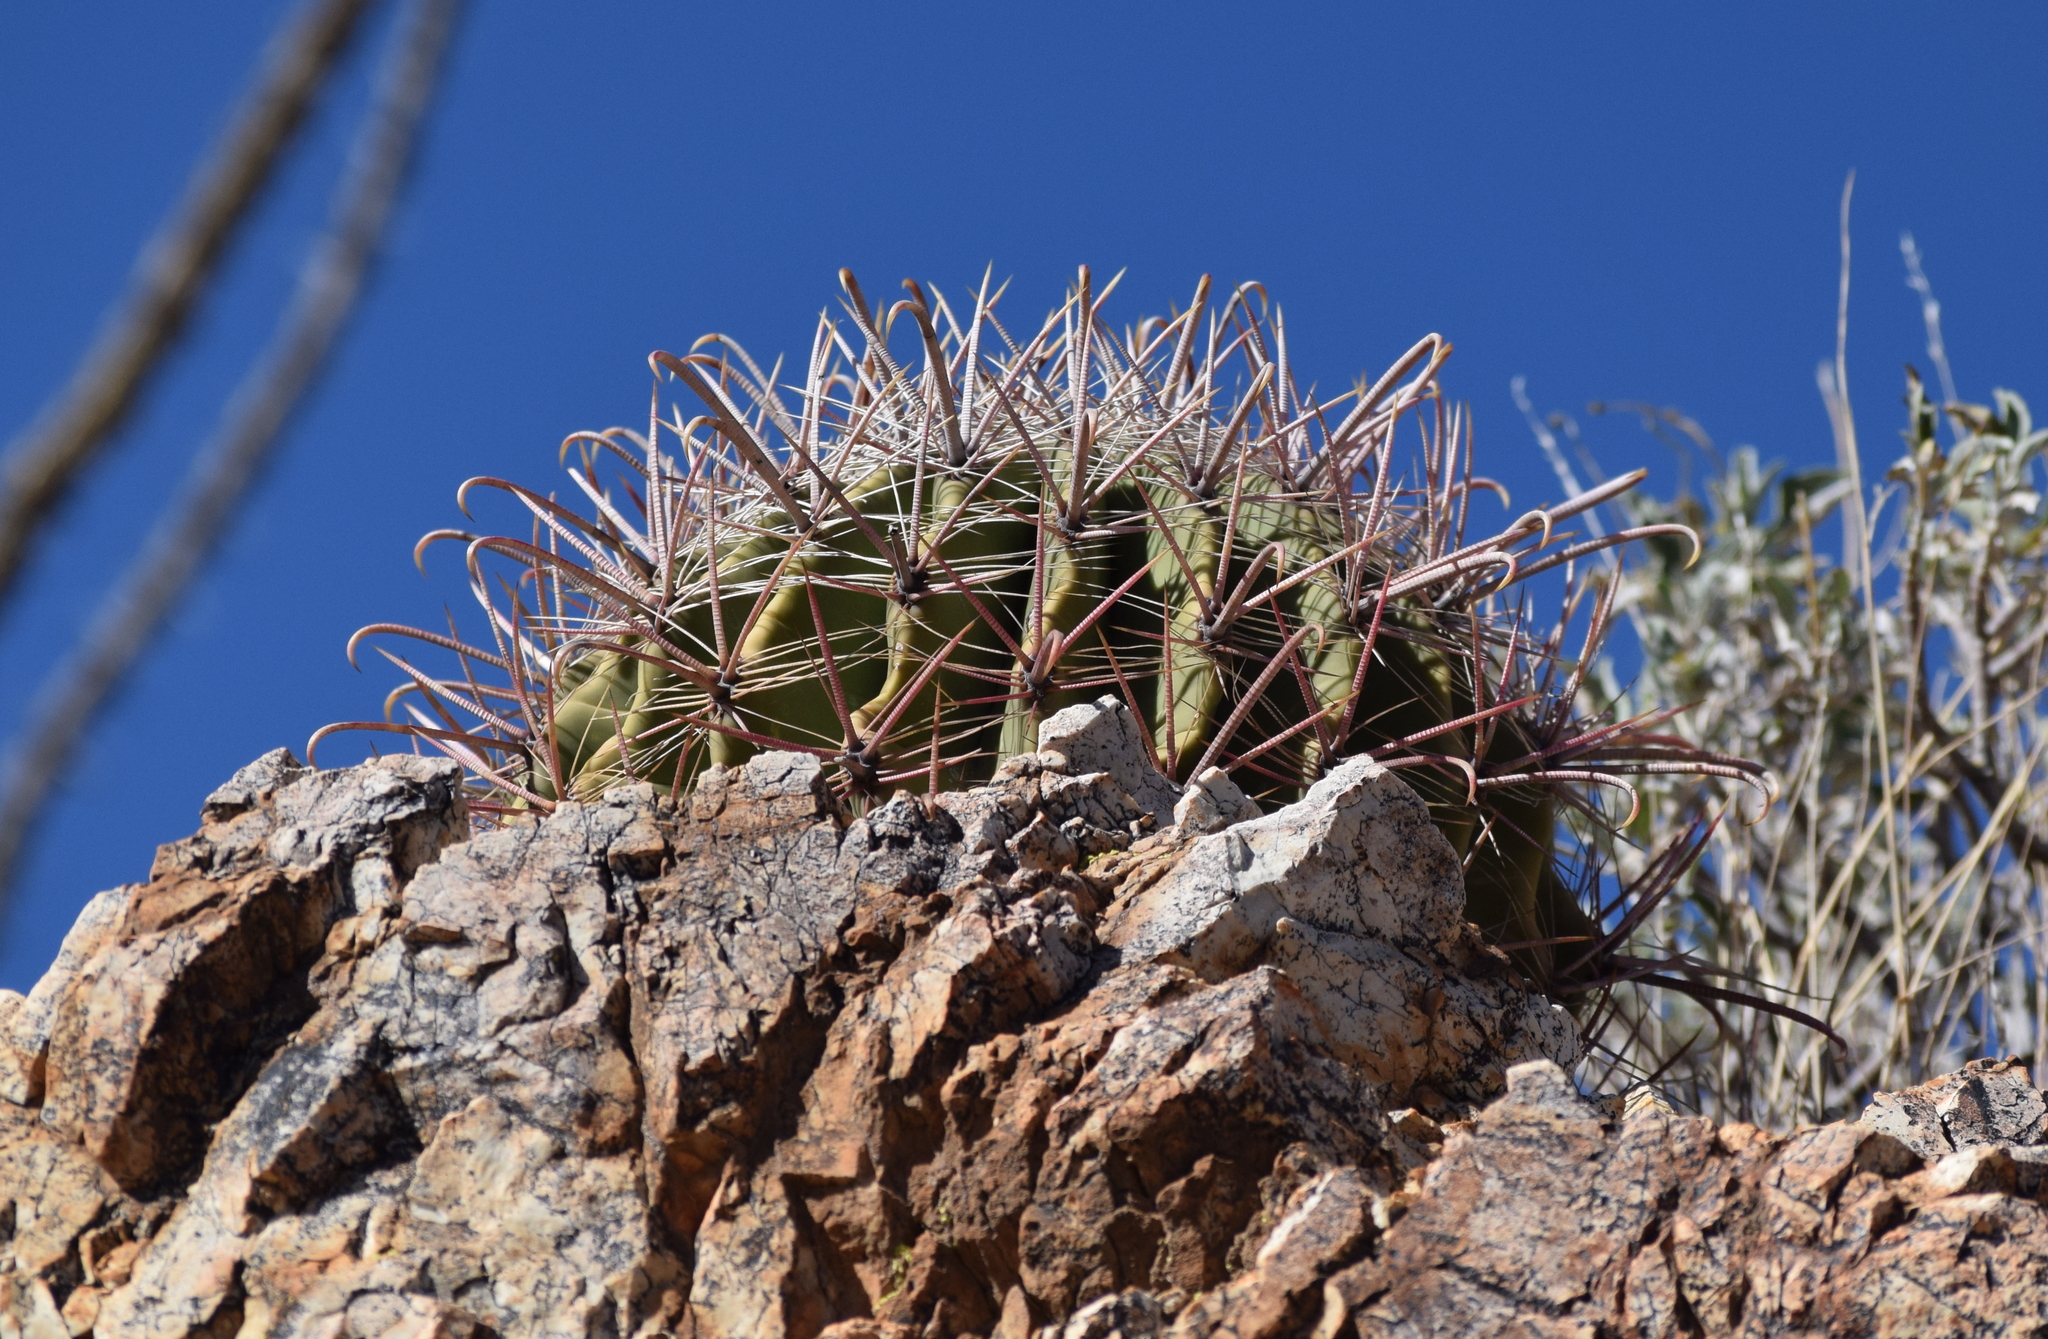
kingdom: Plantae
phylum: Tracheophyta
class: Magnoliopsida
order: Caryophyllales
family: Cactaceae
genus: Ferocactus
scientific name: Ferocactus wislizeni
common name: Candy barrel cactus
